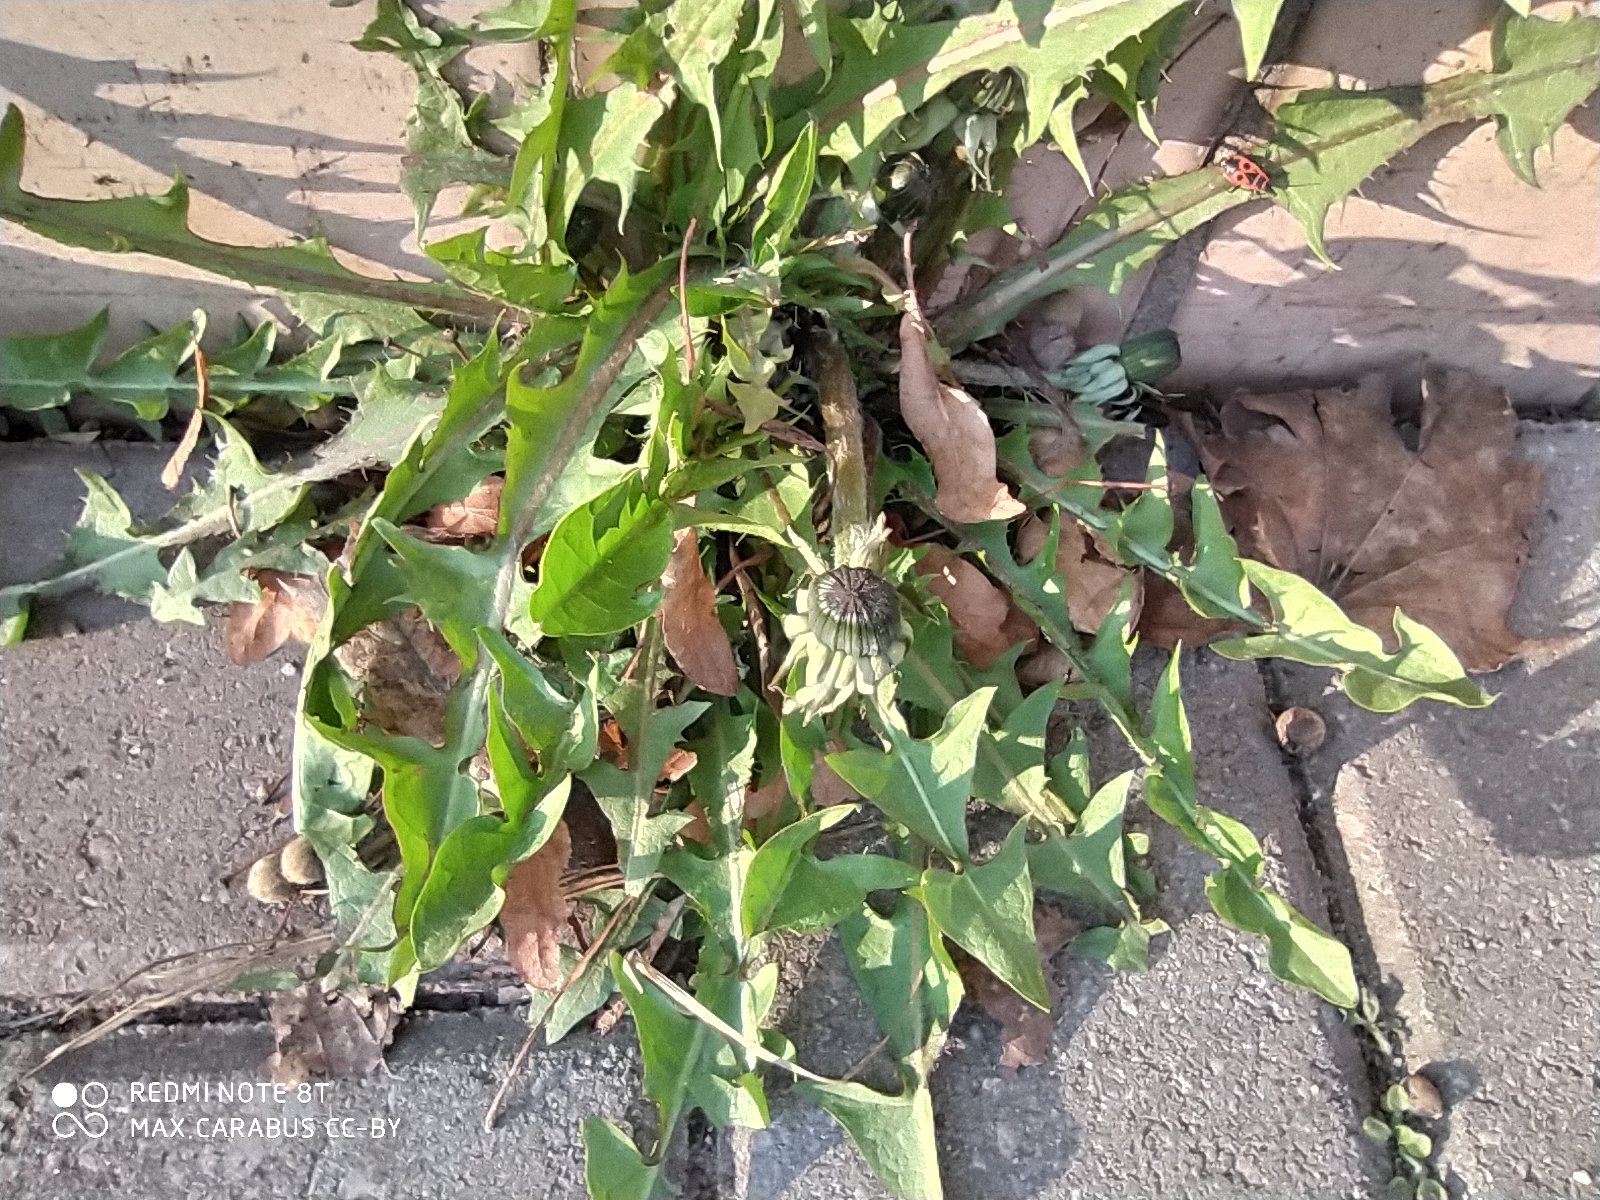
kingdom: Plantae
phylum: Tracheophyta
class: Magnoliopsida
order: Asterales
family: Asteraceae
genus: Taraxacum
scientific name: Taraxacum officinale
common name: Common dandelion
